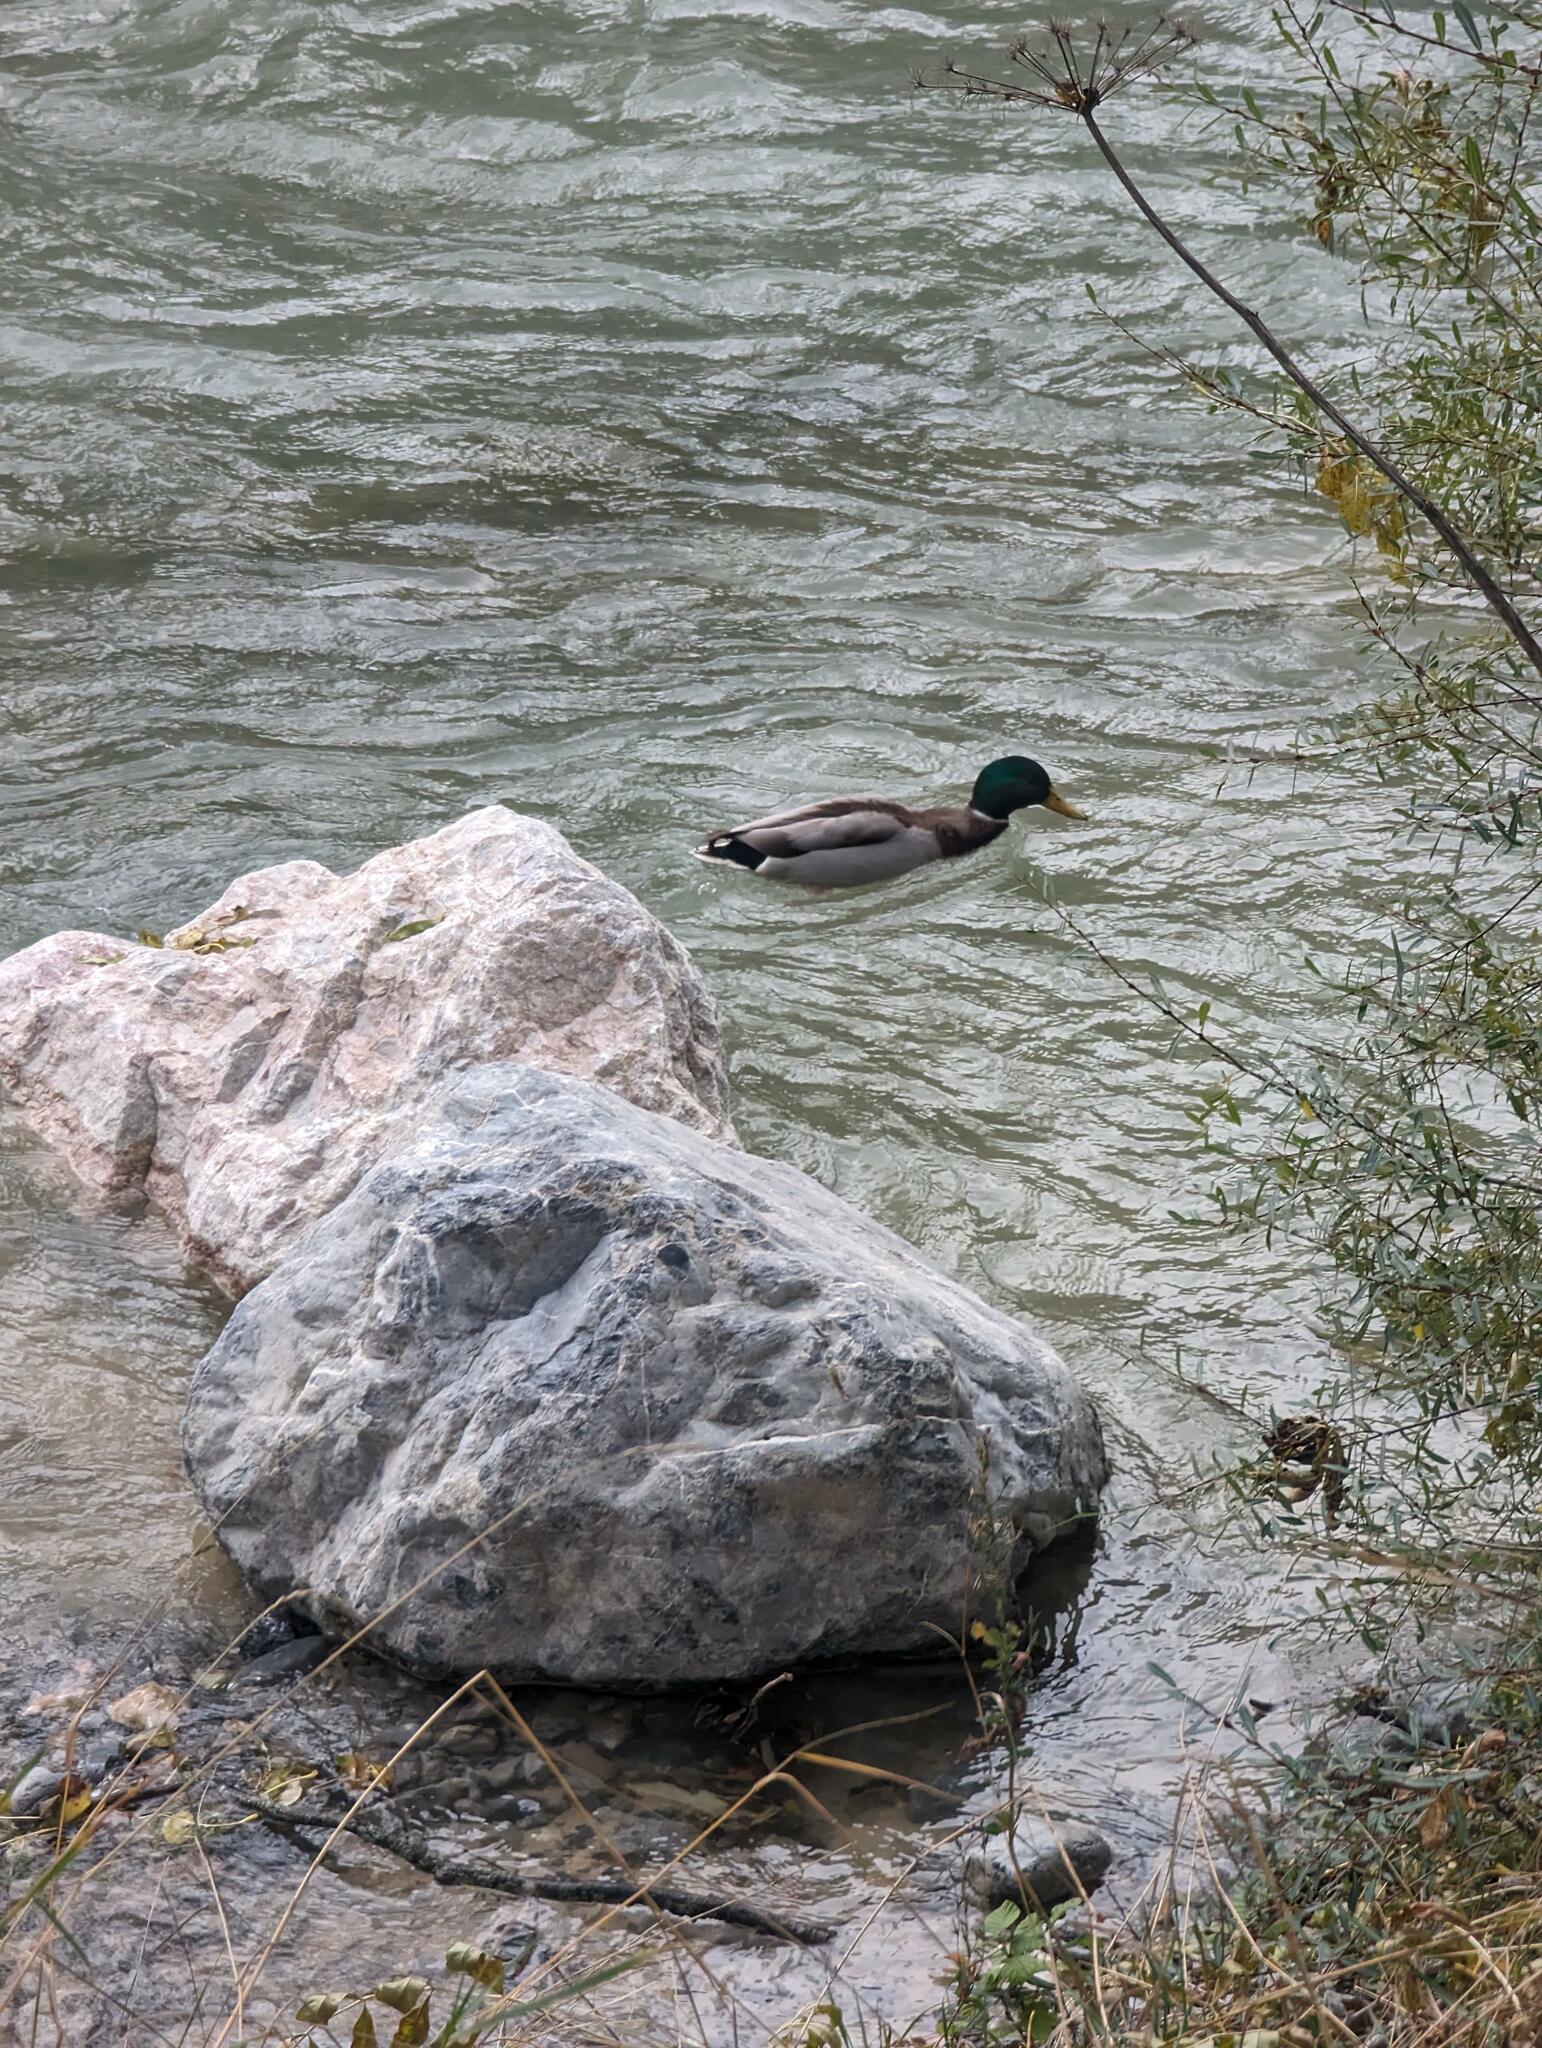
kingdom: Animalia
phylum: Chordata
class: Aves
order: Anseriformes
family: Anatidae
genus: Anas
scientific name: Anas platyrhynchos
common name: Mallard
